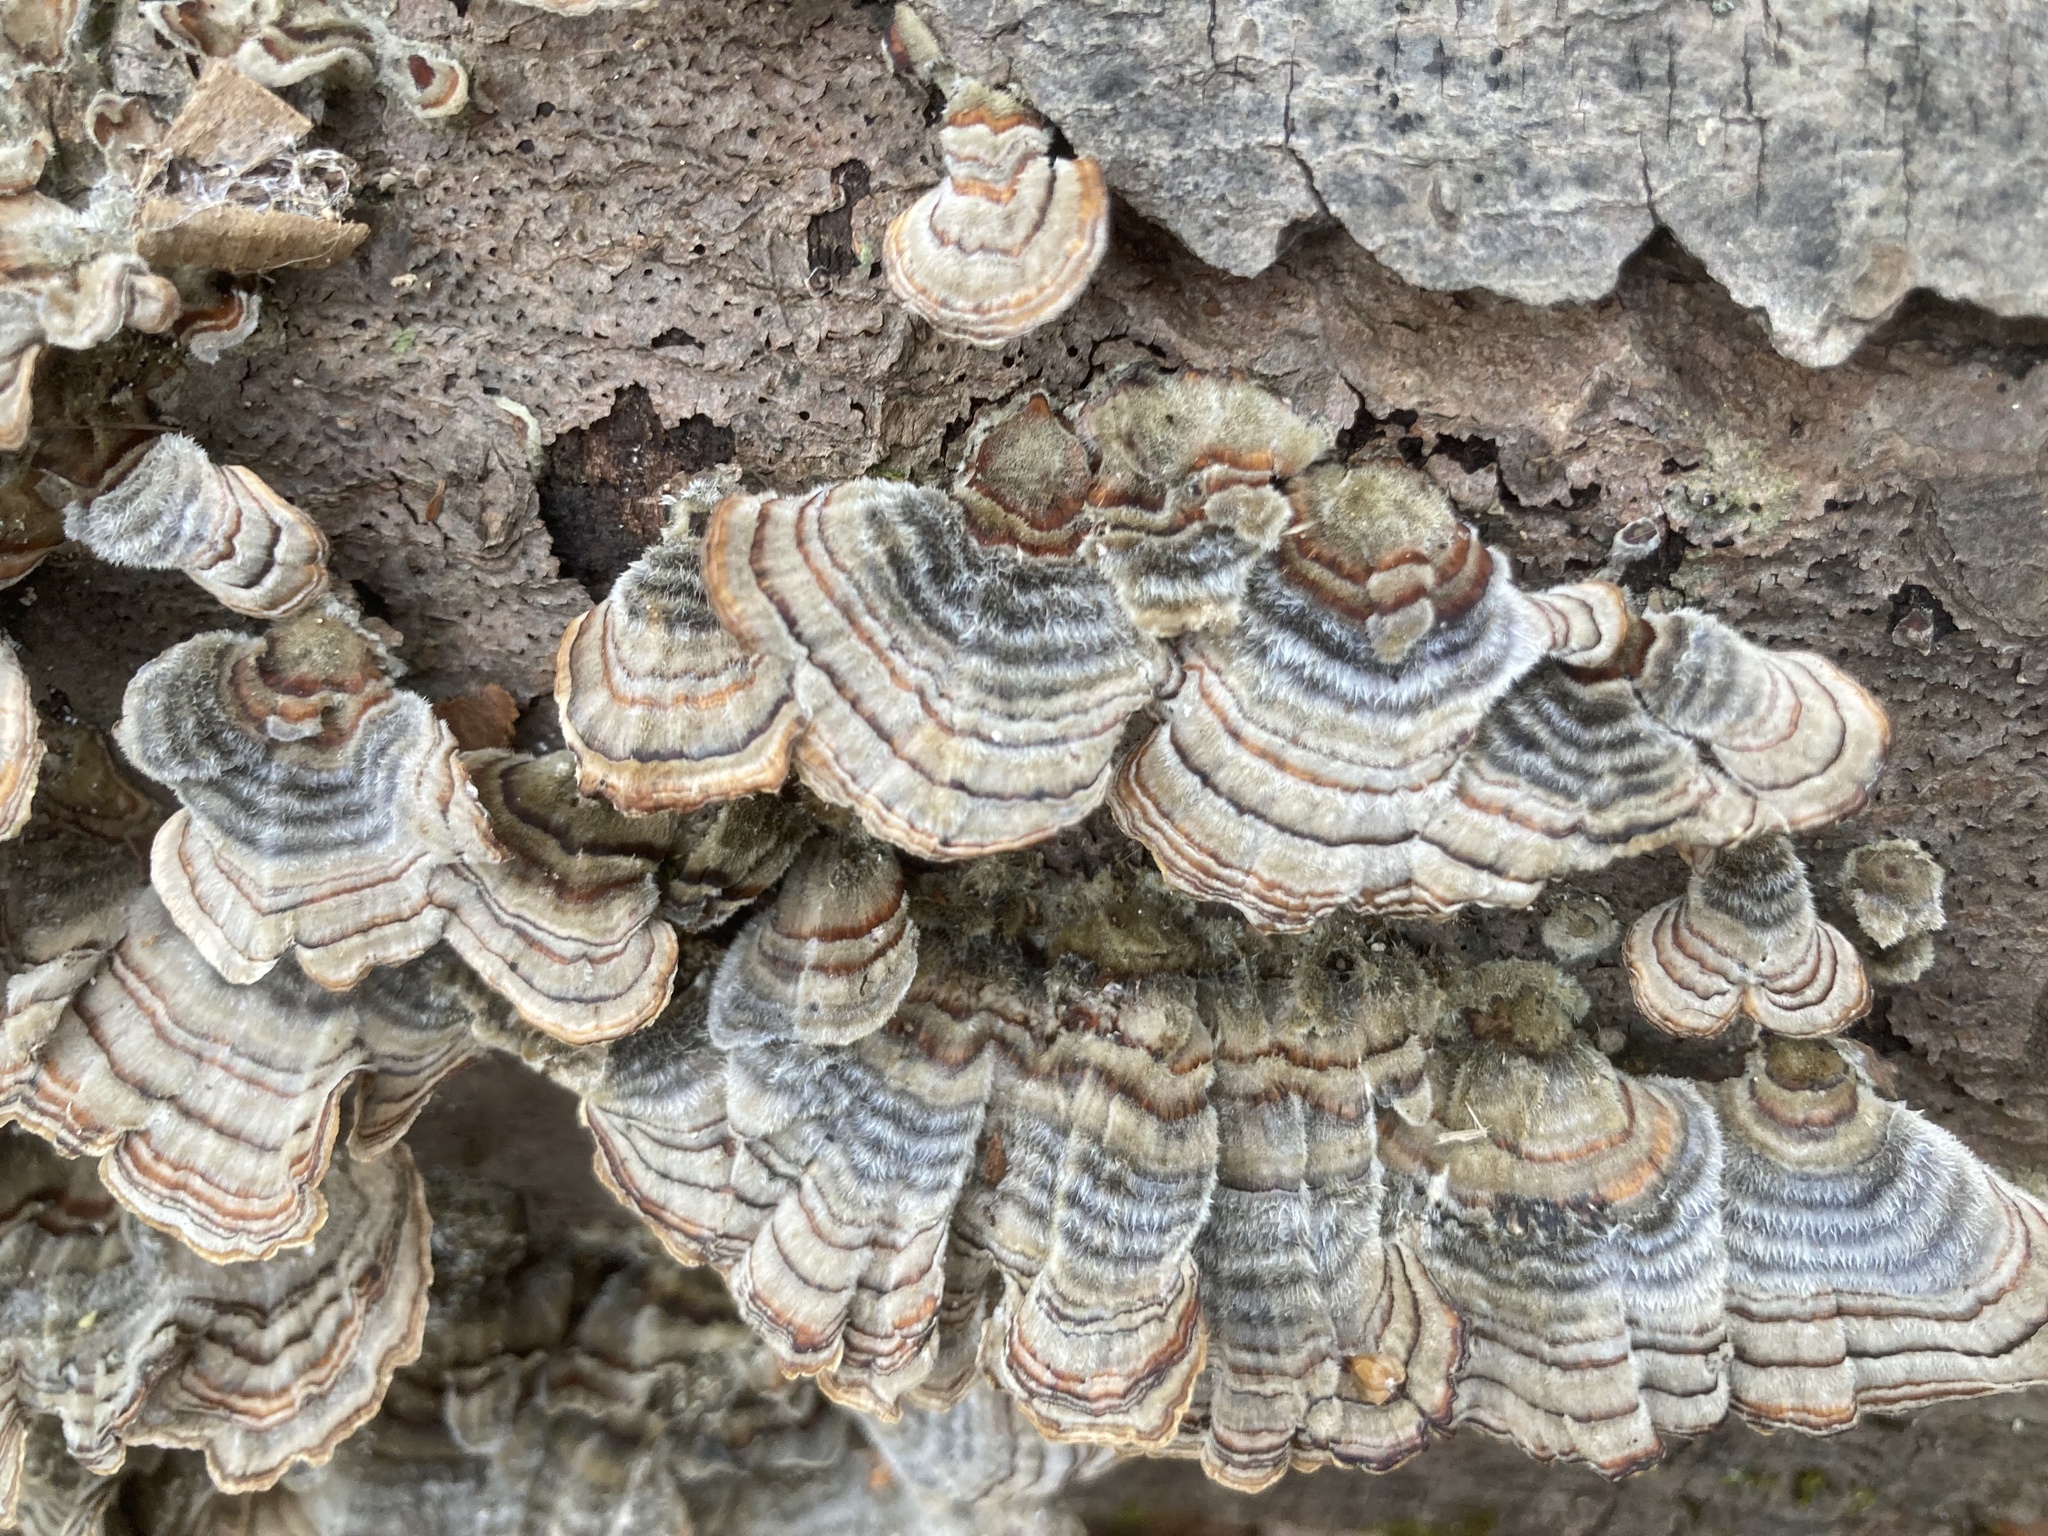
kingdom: Fungi
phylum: Basidiomycota
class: Agaricomycetes
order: Polyporales
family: Polyporaceae
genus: Trametes
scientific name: Trametes versicolor
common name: Turkeytail
